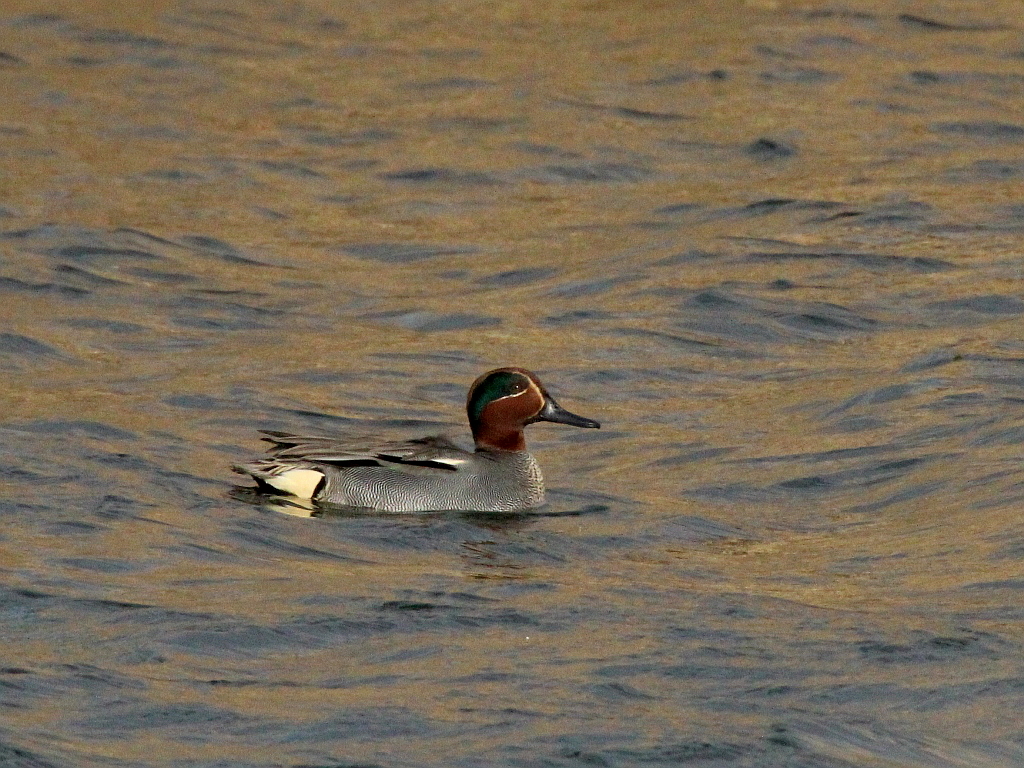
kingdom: Animalia
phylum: Chordata
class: Aves
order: Anseriformes
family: Anatidae
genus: Anas
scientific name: Anas crecca
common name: Eurasian teal
